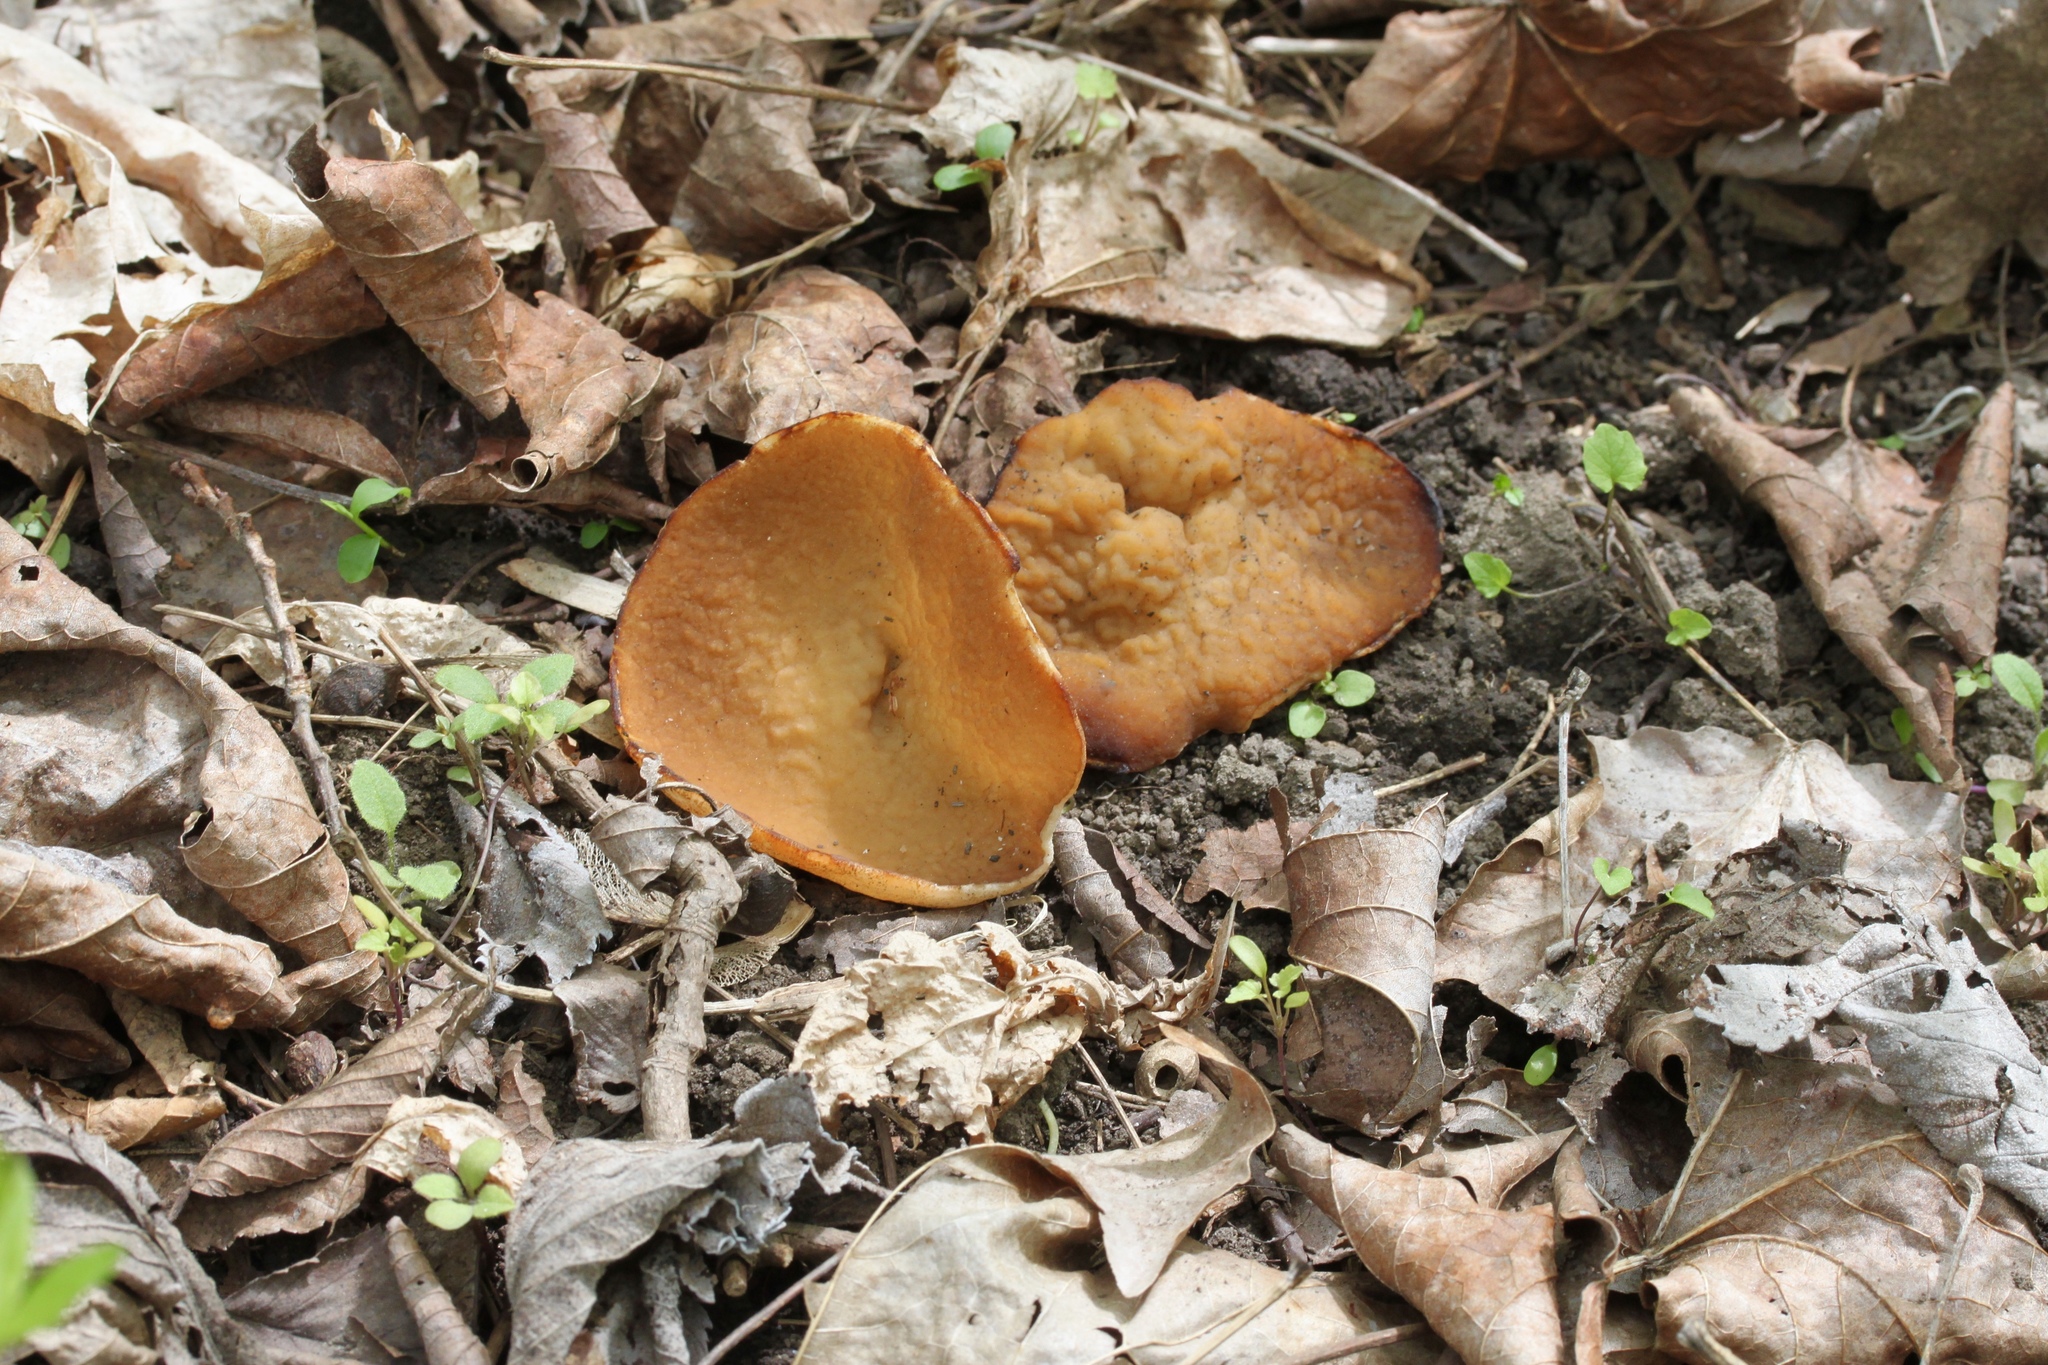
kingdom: Fungi
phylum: Ascomycota
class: Pezizomycetes
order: Pezizales
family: Morchellaceae
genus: Disciotis
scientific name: Disciotis venosa
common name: Bleach cup
